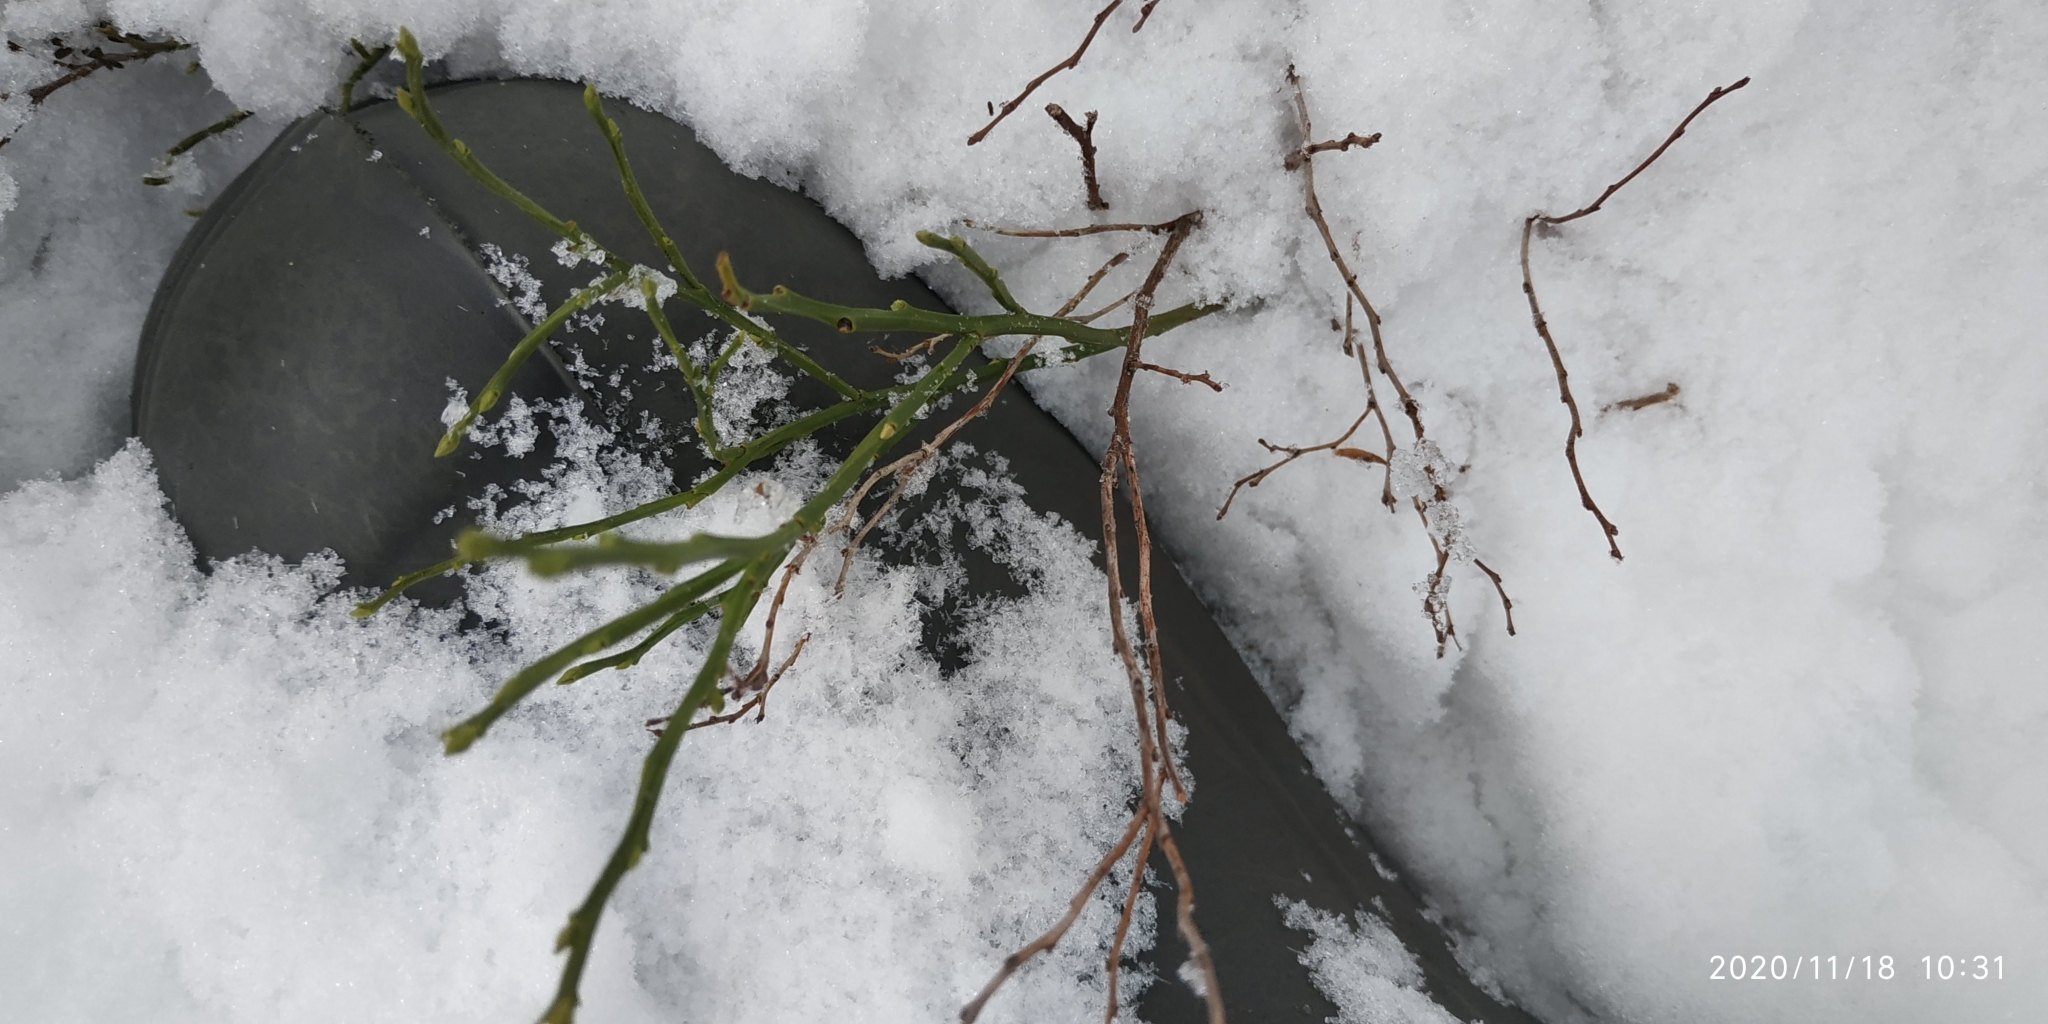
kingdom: Plantae
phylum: Tracheophyta
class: Magnoliopsida
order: Ericales
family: Ericaceae
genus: Vaccinium
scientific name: Vaccinium myrtillus
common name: Bilberry
